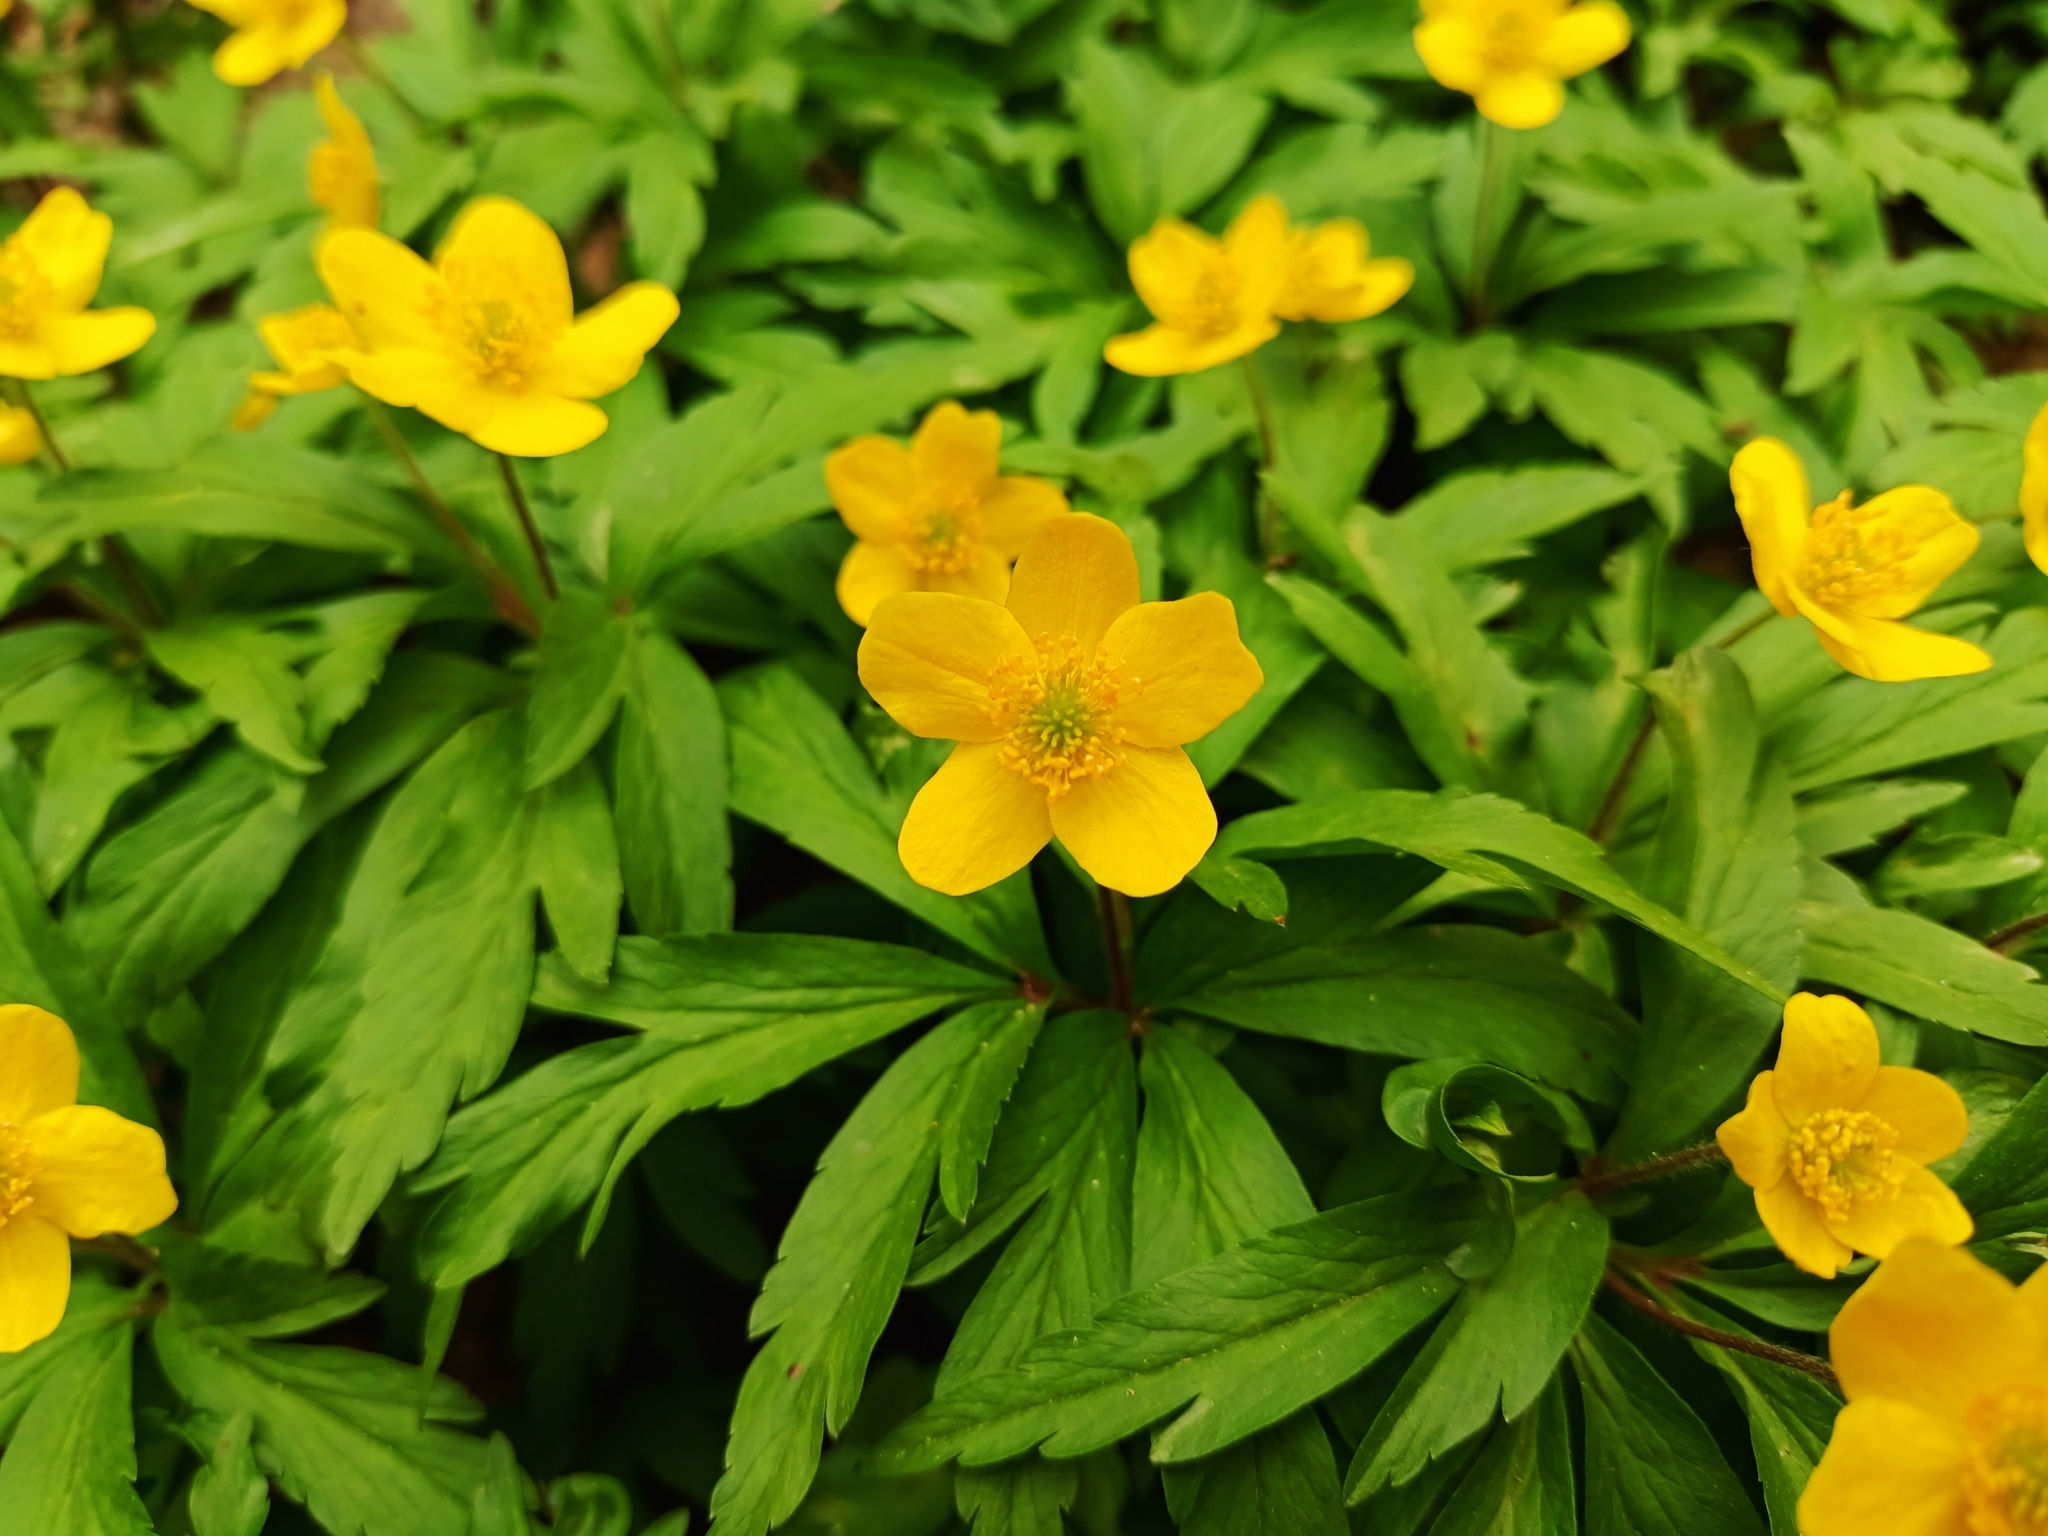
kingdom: Plantae
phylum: Tracheophyta
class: Magnoliopsida
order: Ranunculales
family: Ranunculaceae
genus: Anemone
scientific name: Anemone ranunculoides
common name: Yellow anemone
